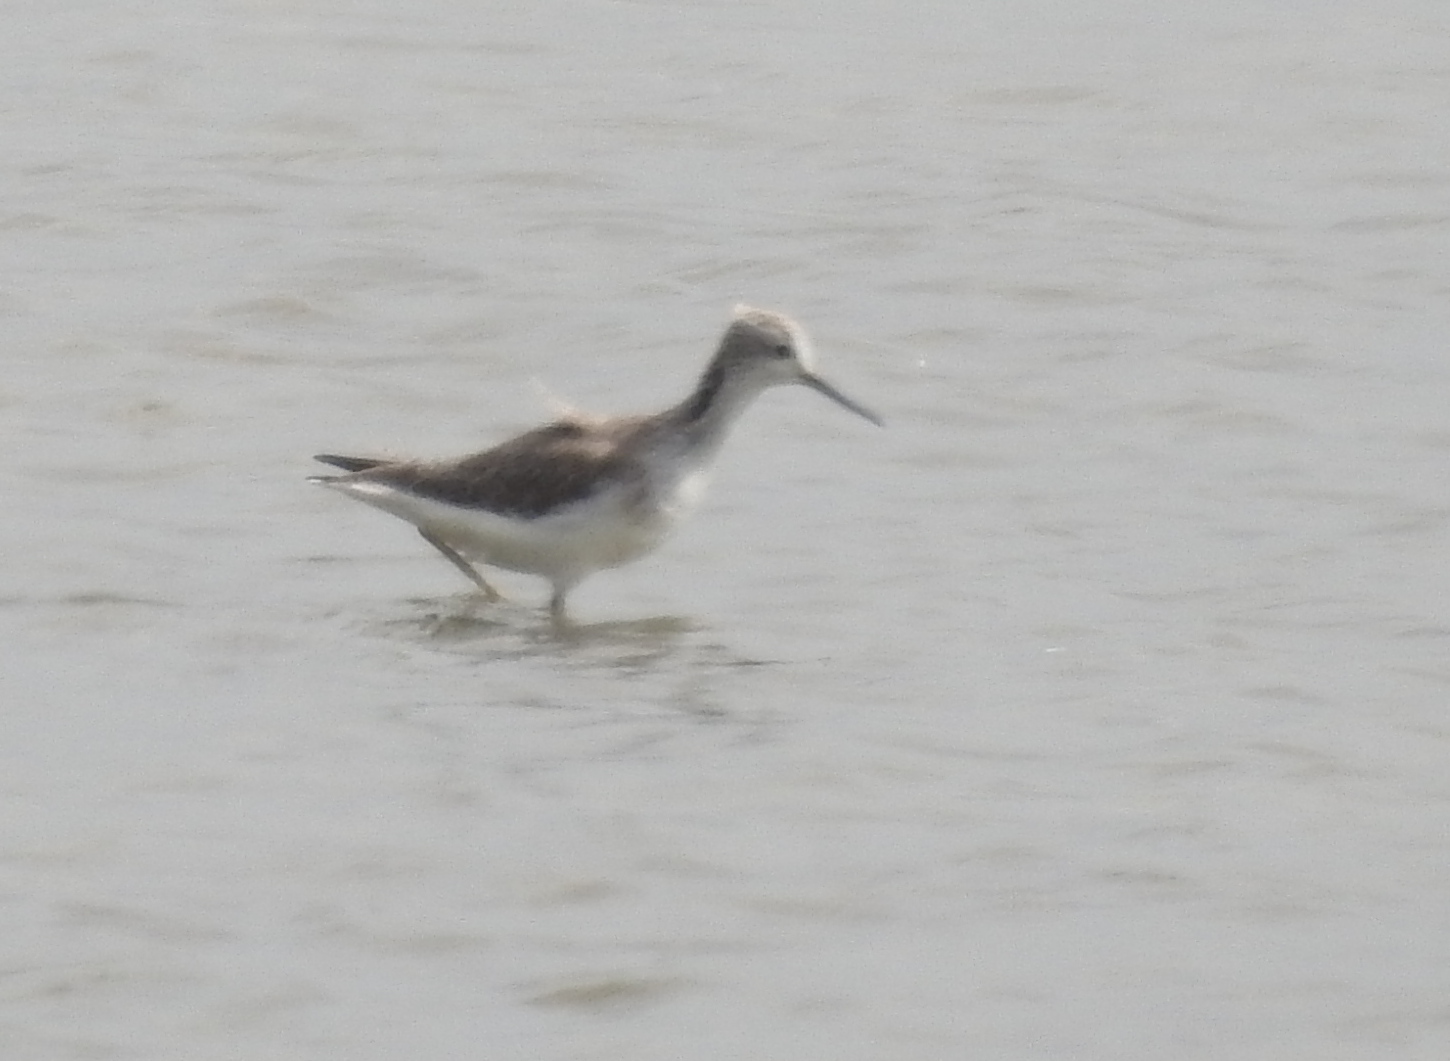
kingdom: Animalia
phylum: Chordata
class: Aves
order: Charadriiformes
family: Scolopacidae
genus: Tringa
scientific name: Tringa stagnatilis
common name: Marsh sandpiper
